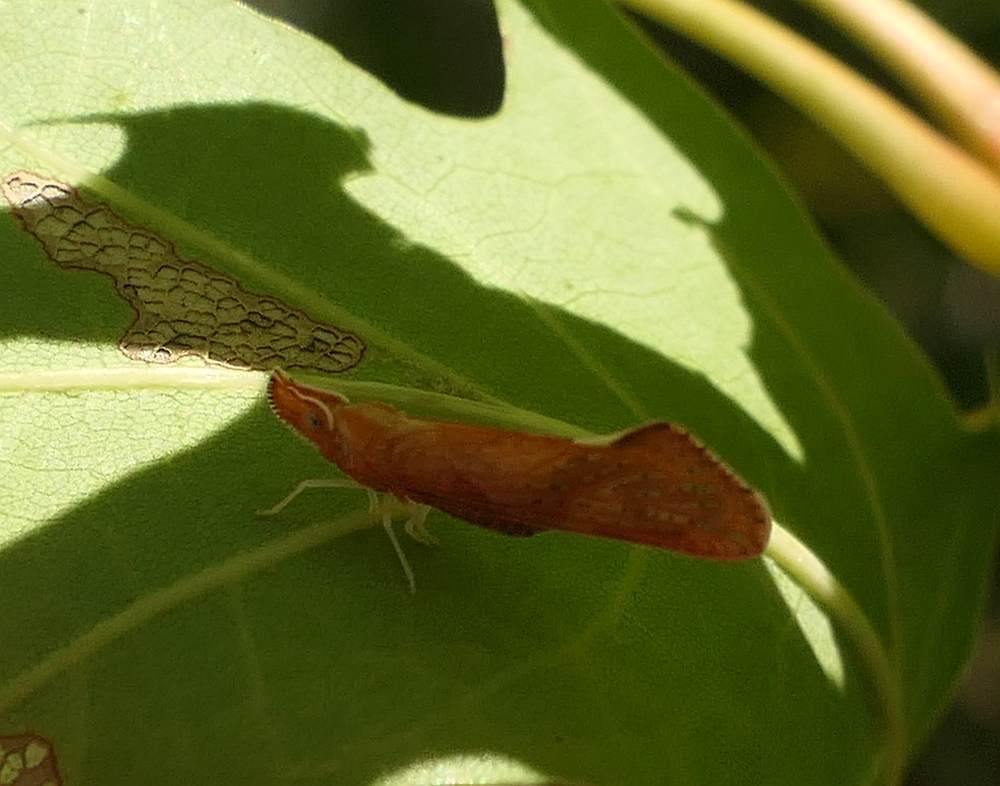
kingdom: Animalia
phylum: Arthropoda
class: Insecta
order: Hemiptera
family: Derbidae
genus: Apache
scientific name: Apache degeeri
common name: Red-fanned planthopper
